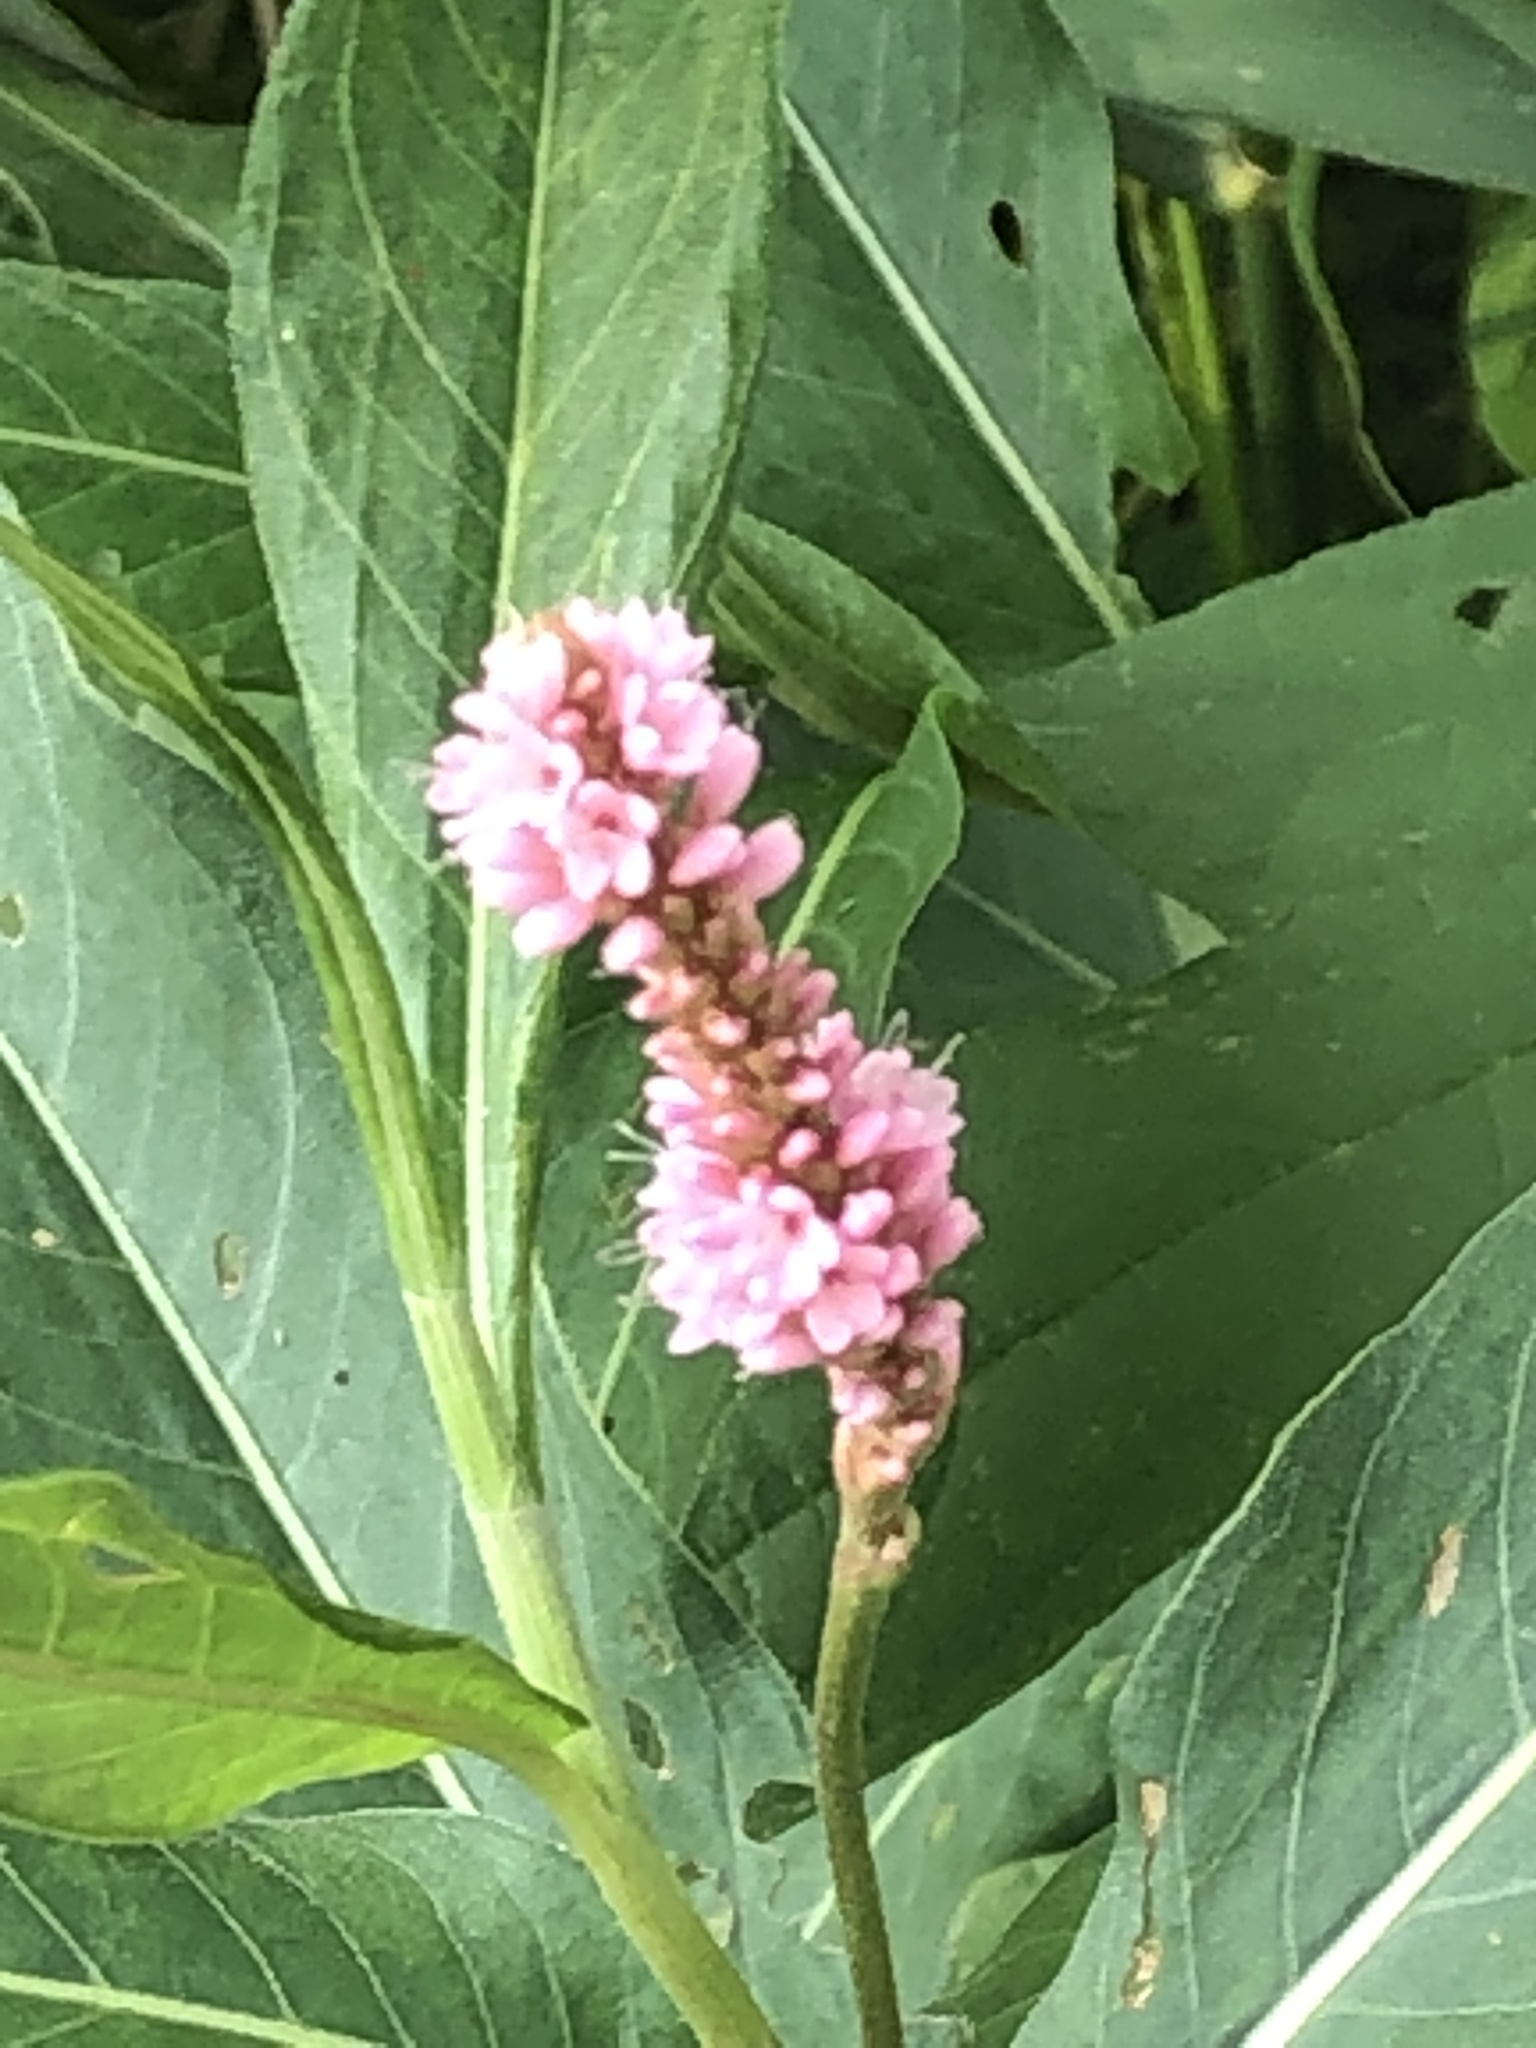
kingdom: Plantae
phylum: Tracheophyta
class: Magnoliopsida
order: Caryophyllales
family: Polygonaceae
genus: Persicaria
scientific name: Persicaria amphibia
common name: Amphibious bistort
